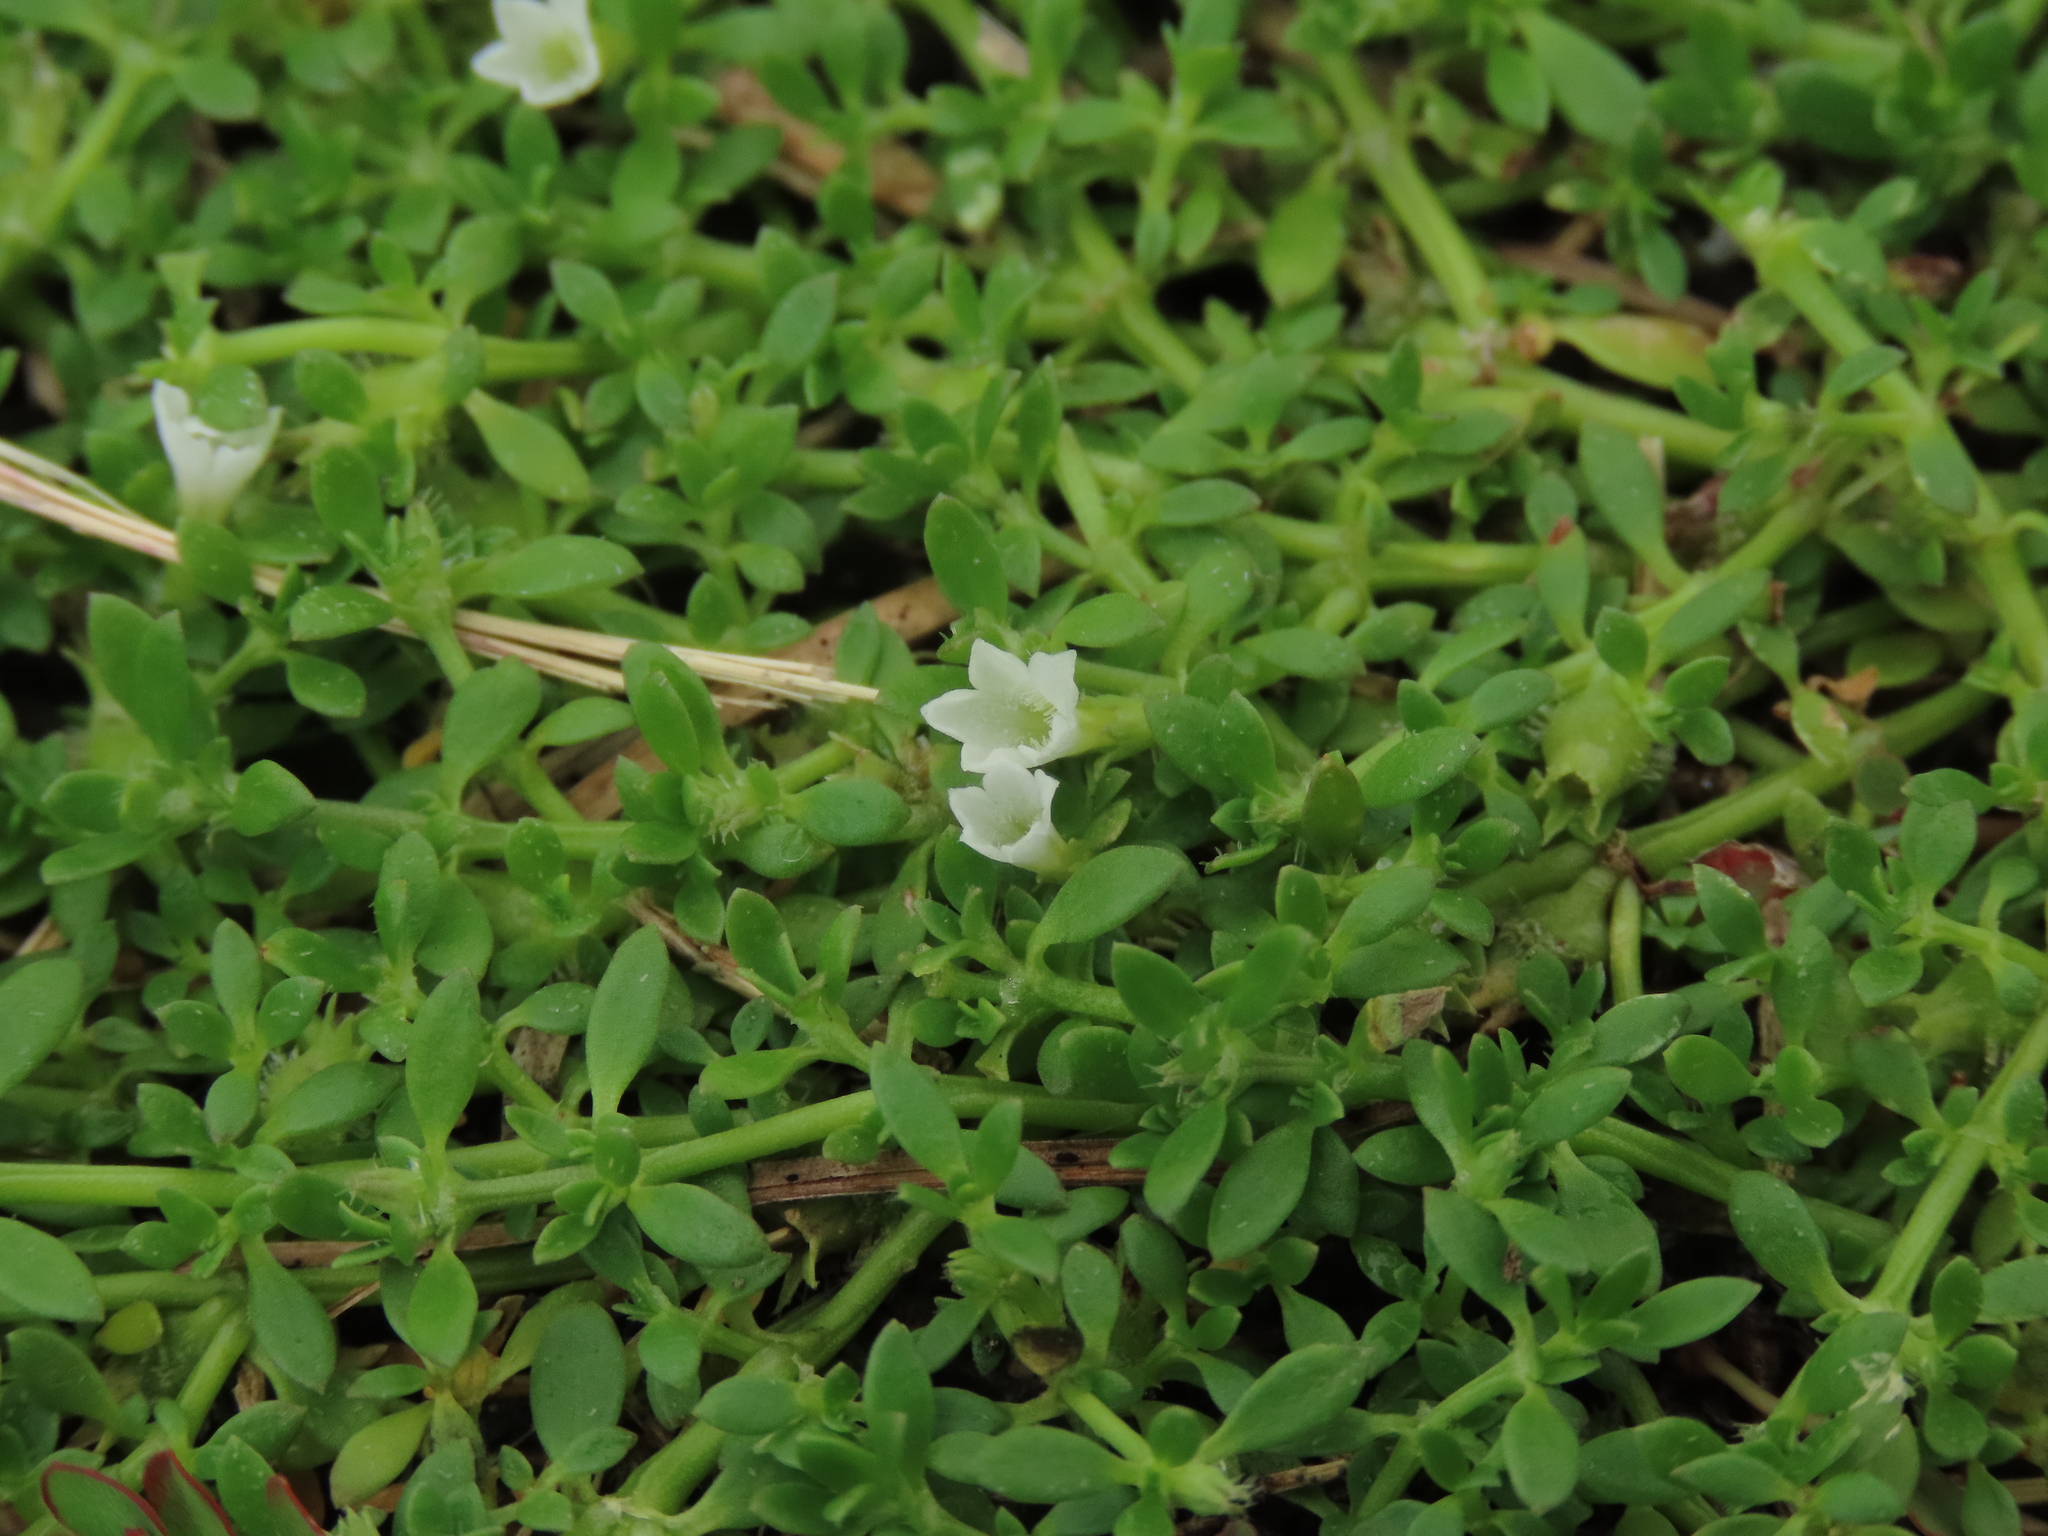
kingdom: Plantae
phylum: Tracheophyta
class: Magnoliopsida
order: Gentianales
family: Rubiaceae
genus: Dentella
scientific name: Dentella repens
